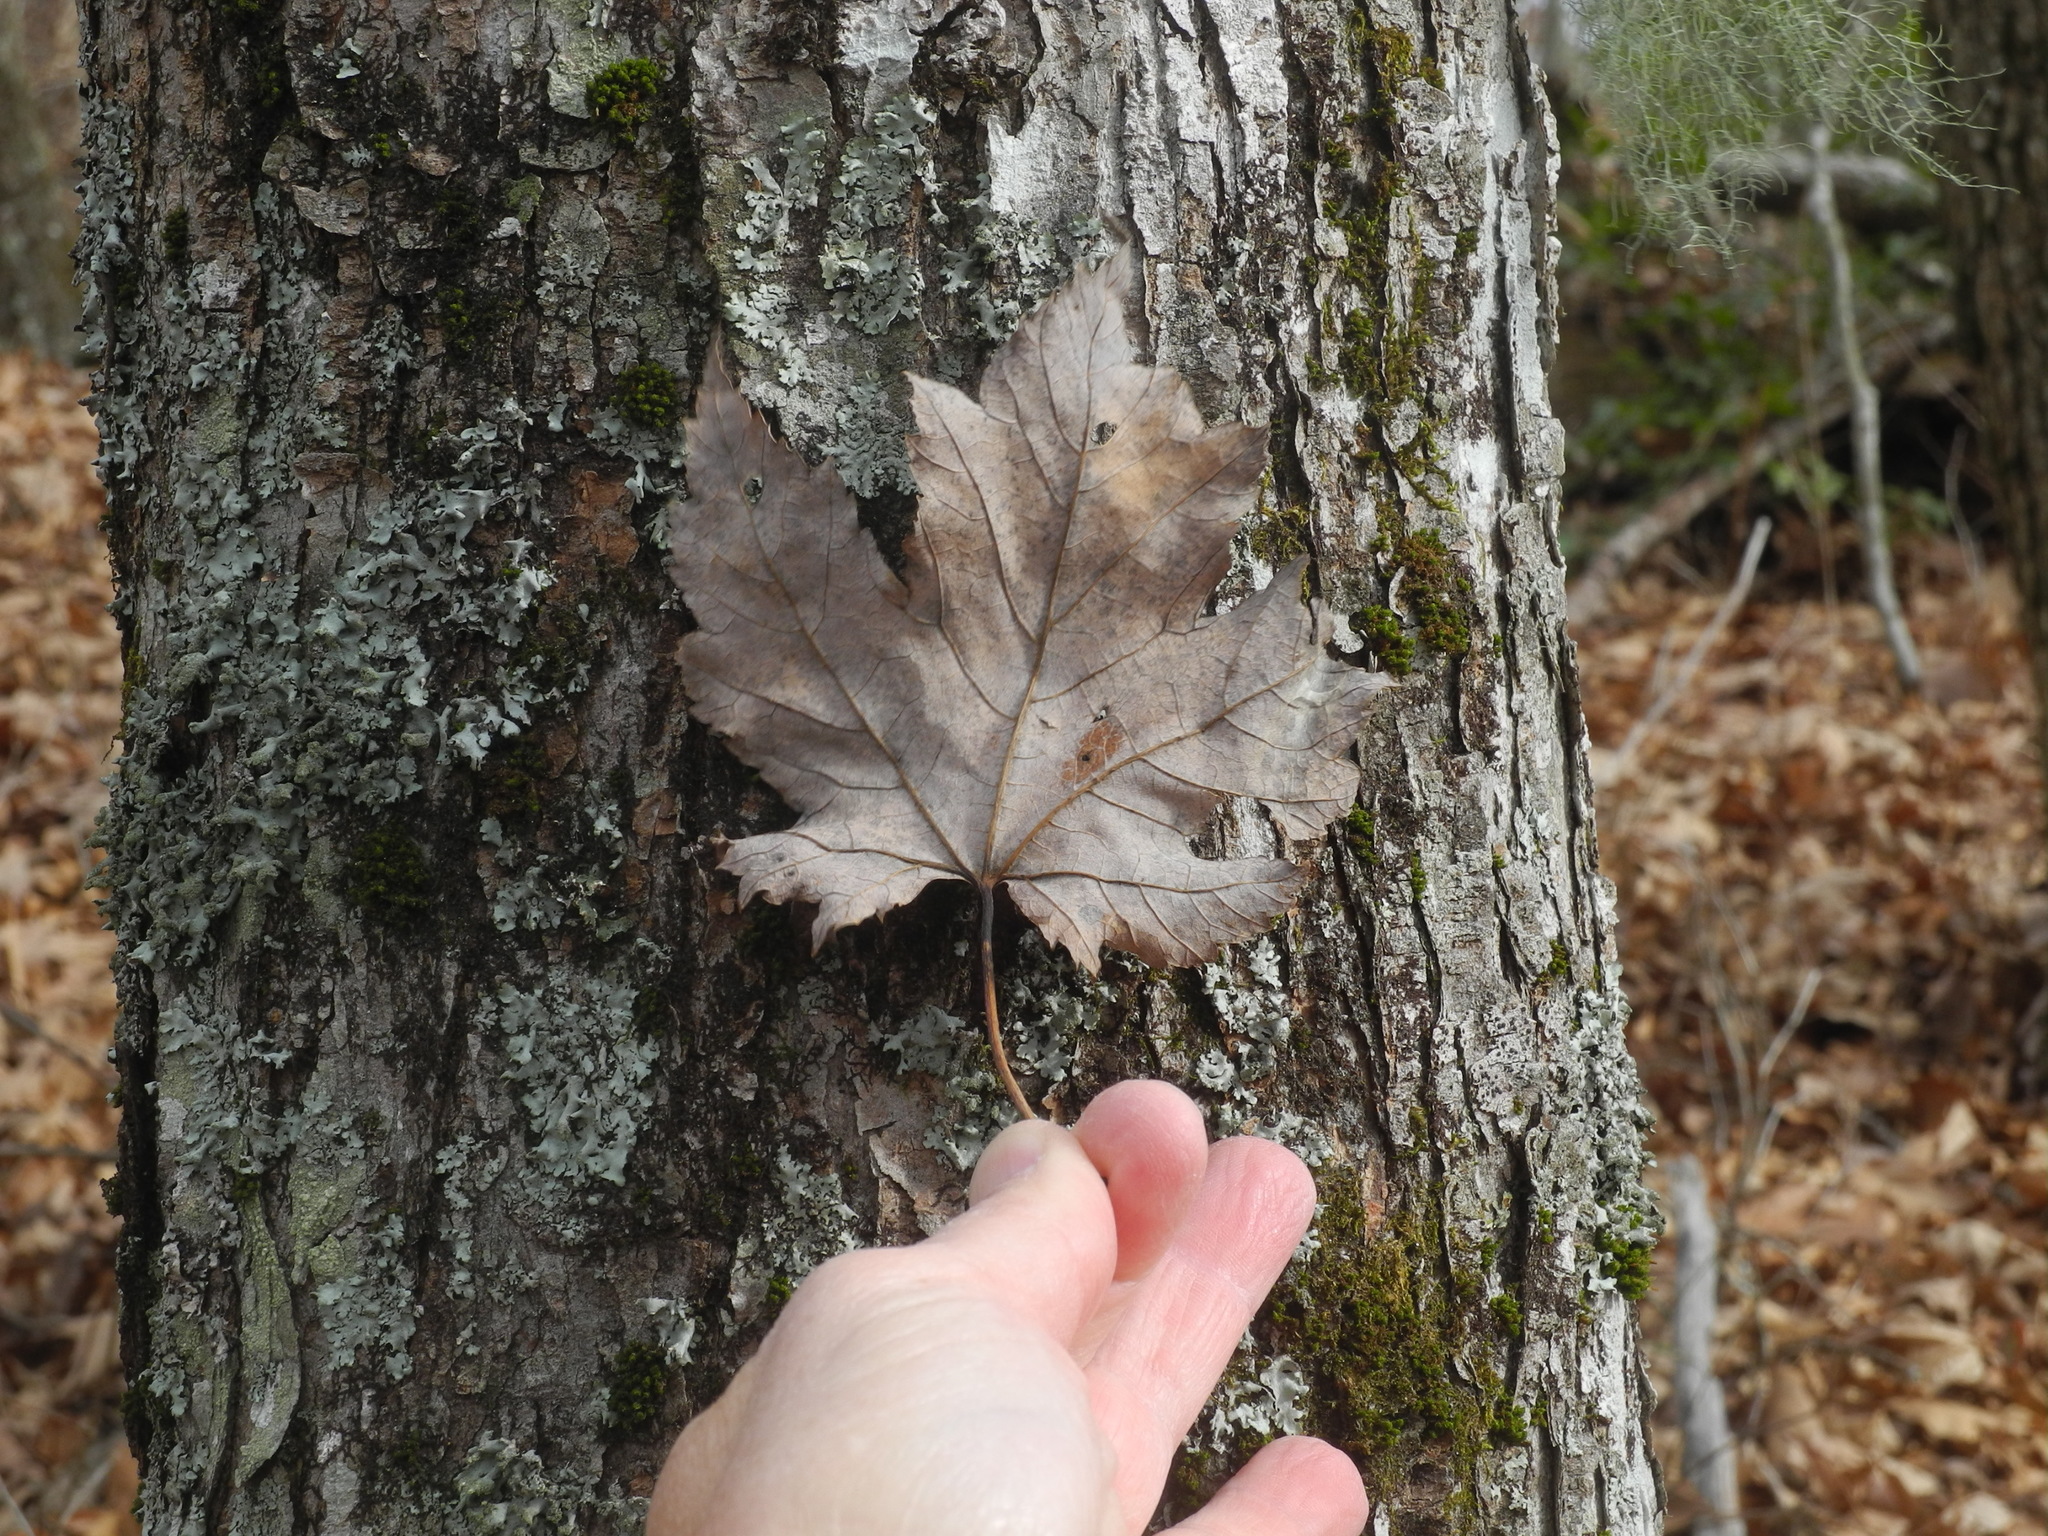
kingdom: Plantae
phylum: Tracheophyta
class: Magnoliopsida
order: Sapindales
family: Sapindaceae
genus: Acer
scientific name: Acer freemanii
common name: Freeman maple
